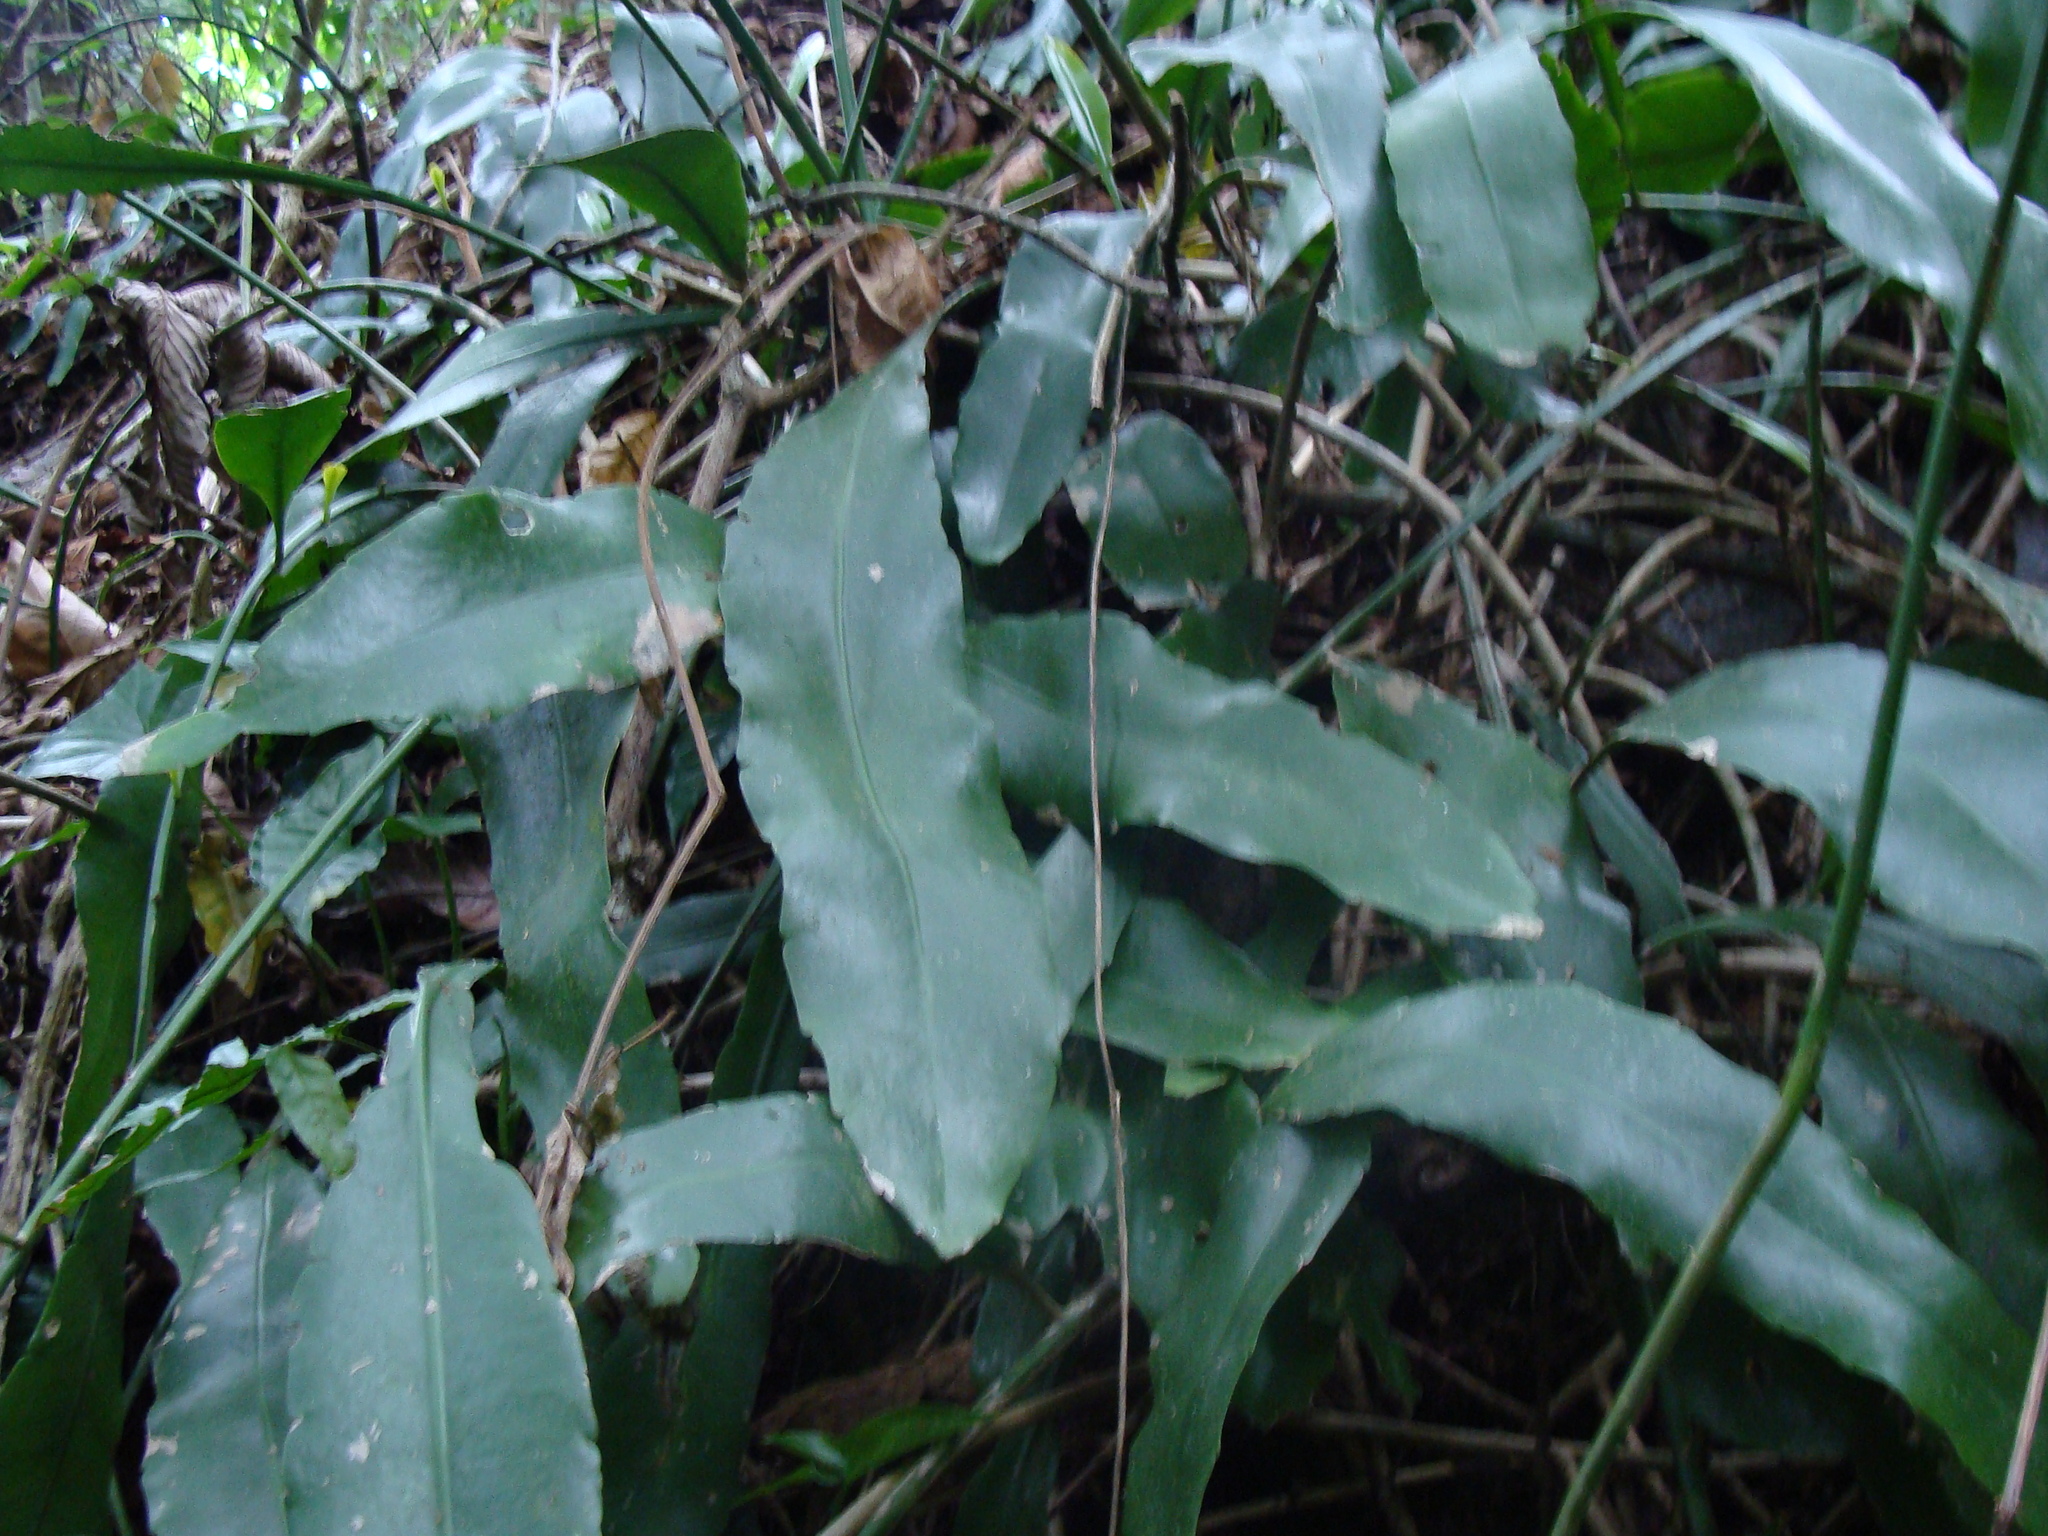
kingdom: Plantae
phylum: Tracheophyta
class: Magnoliopsida
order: Caryophyllales
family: Cactaceae
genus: Epiphyllum
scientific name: Epiphyllum oxypetalum
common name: Dutchman's pipe cactus
